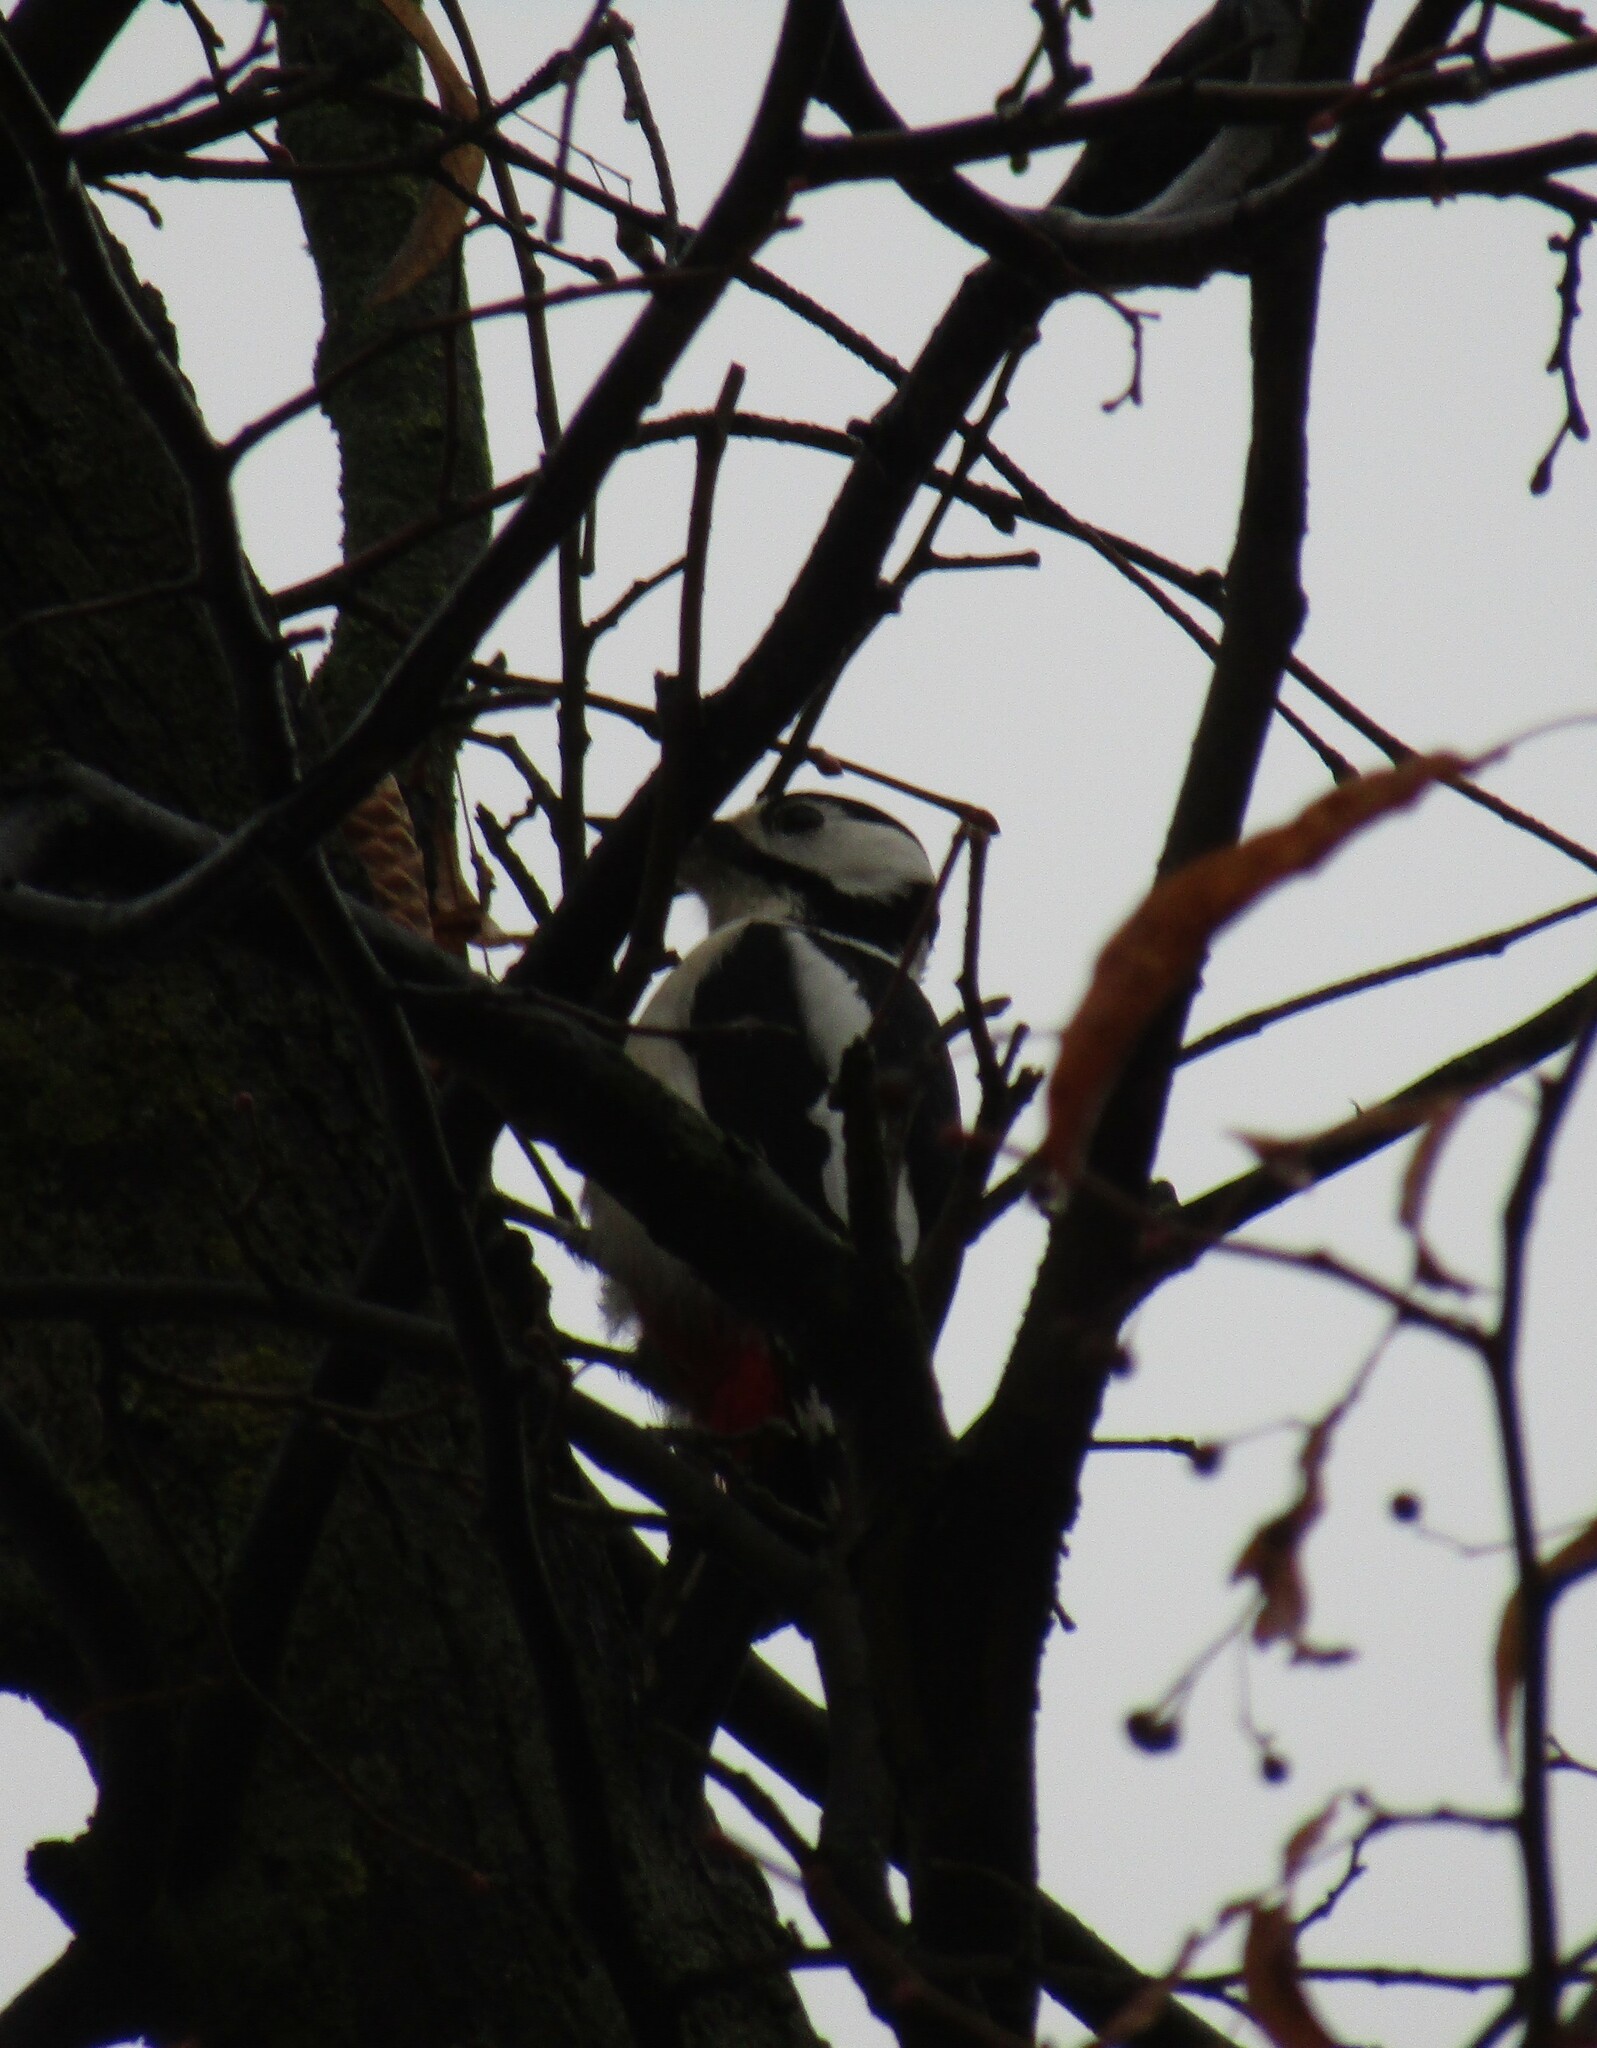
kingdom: Animalia
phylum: Chordata
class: Aves
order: Piciformes
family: Picidae
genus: Dendrocopos
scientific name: Dendrocopos major
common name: Great spotted woodpecker
